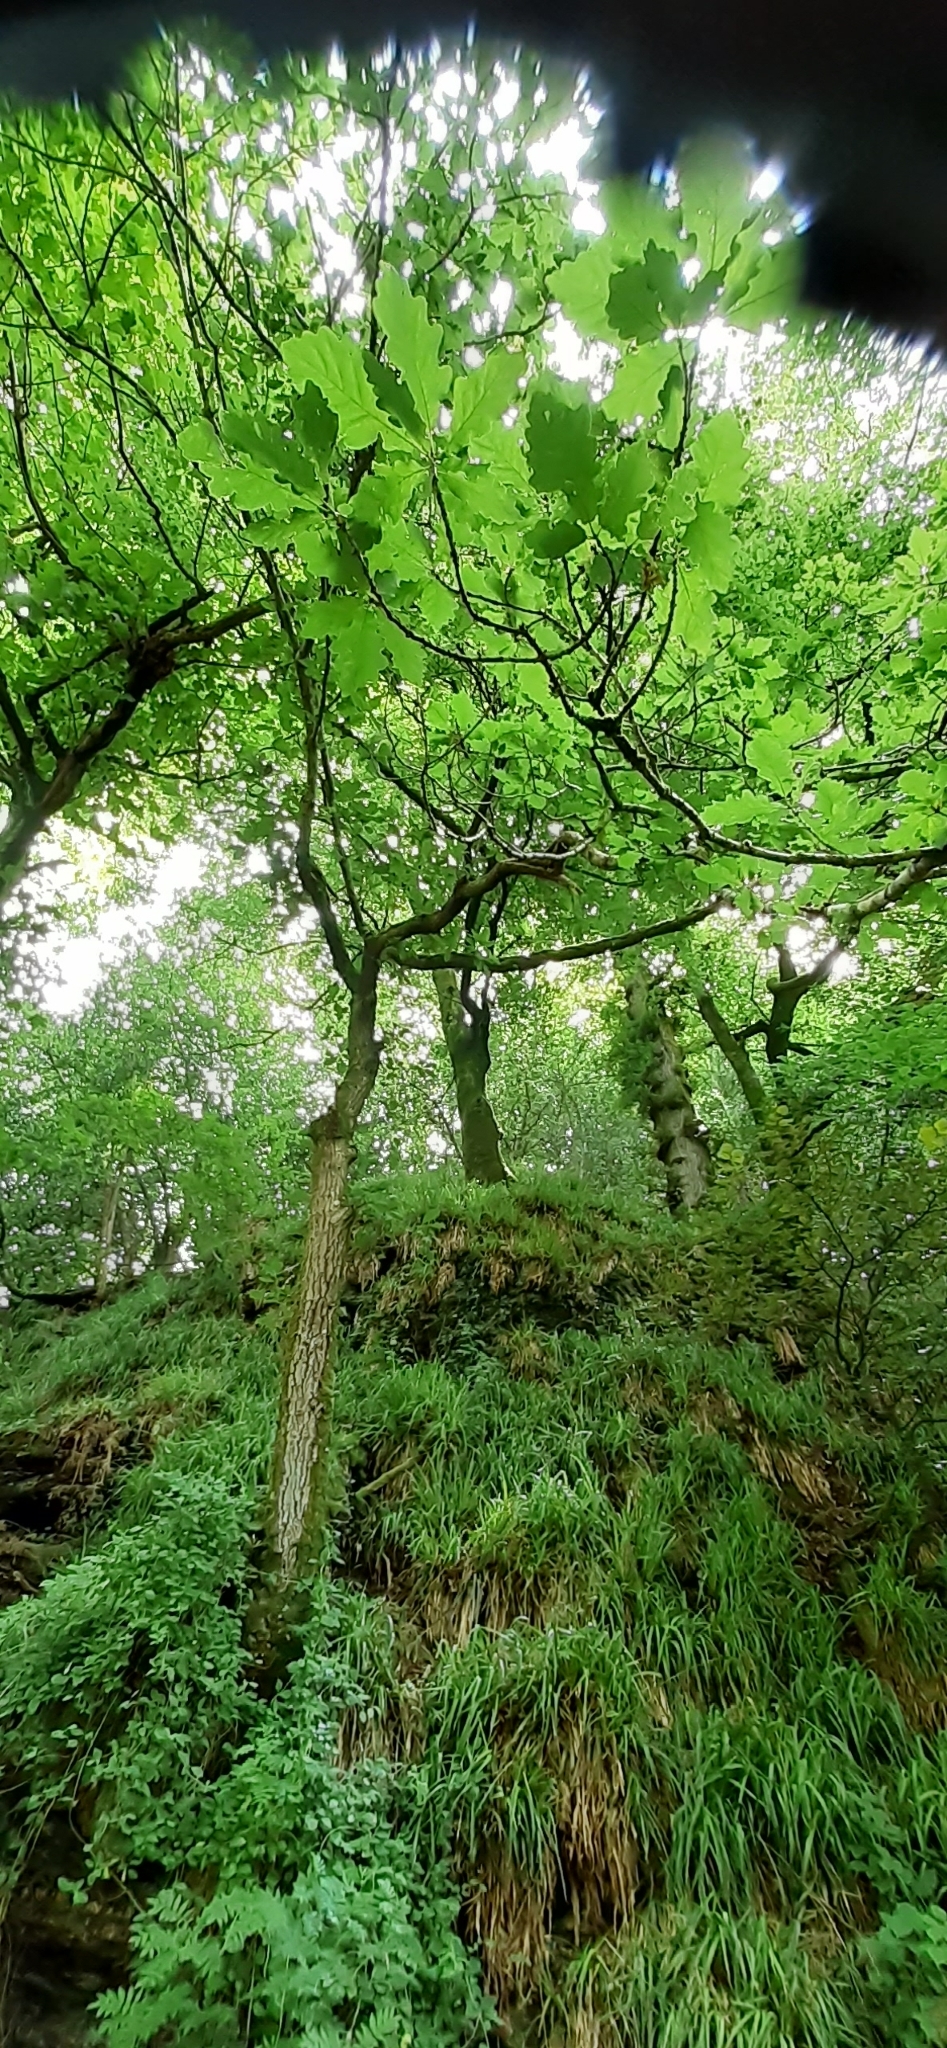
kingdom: Plantae
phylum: Tracheophyta
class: Magnoliopsida
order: Fagales
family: Fagaceae
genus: Quercus
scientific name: Quercus petraea
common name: Sessile oak
